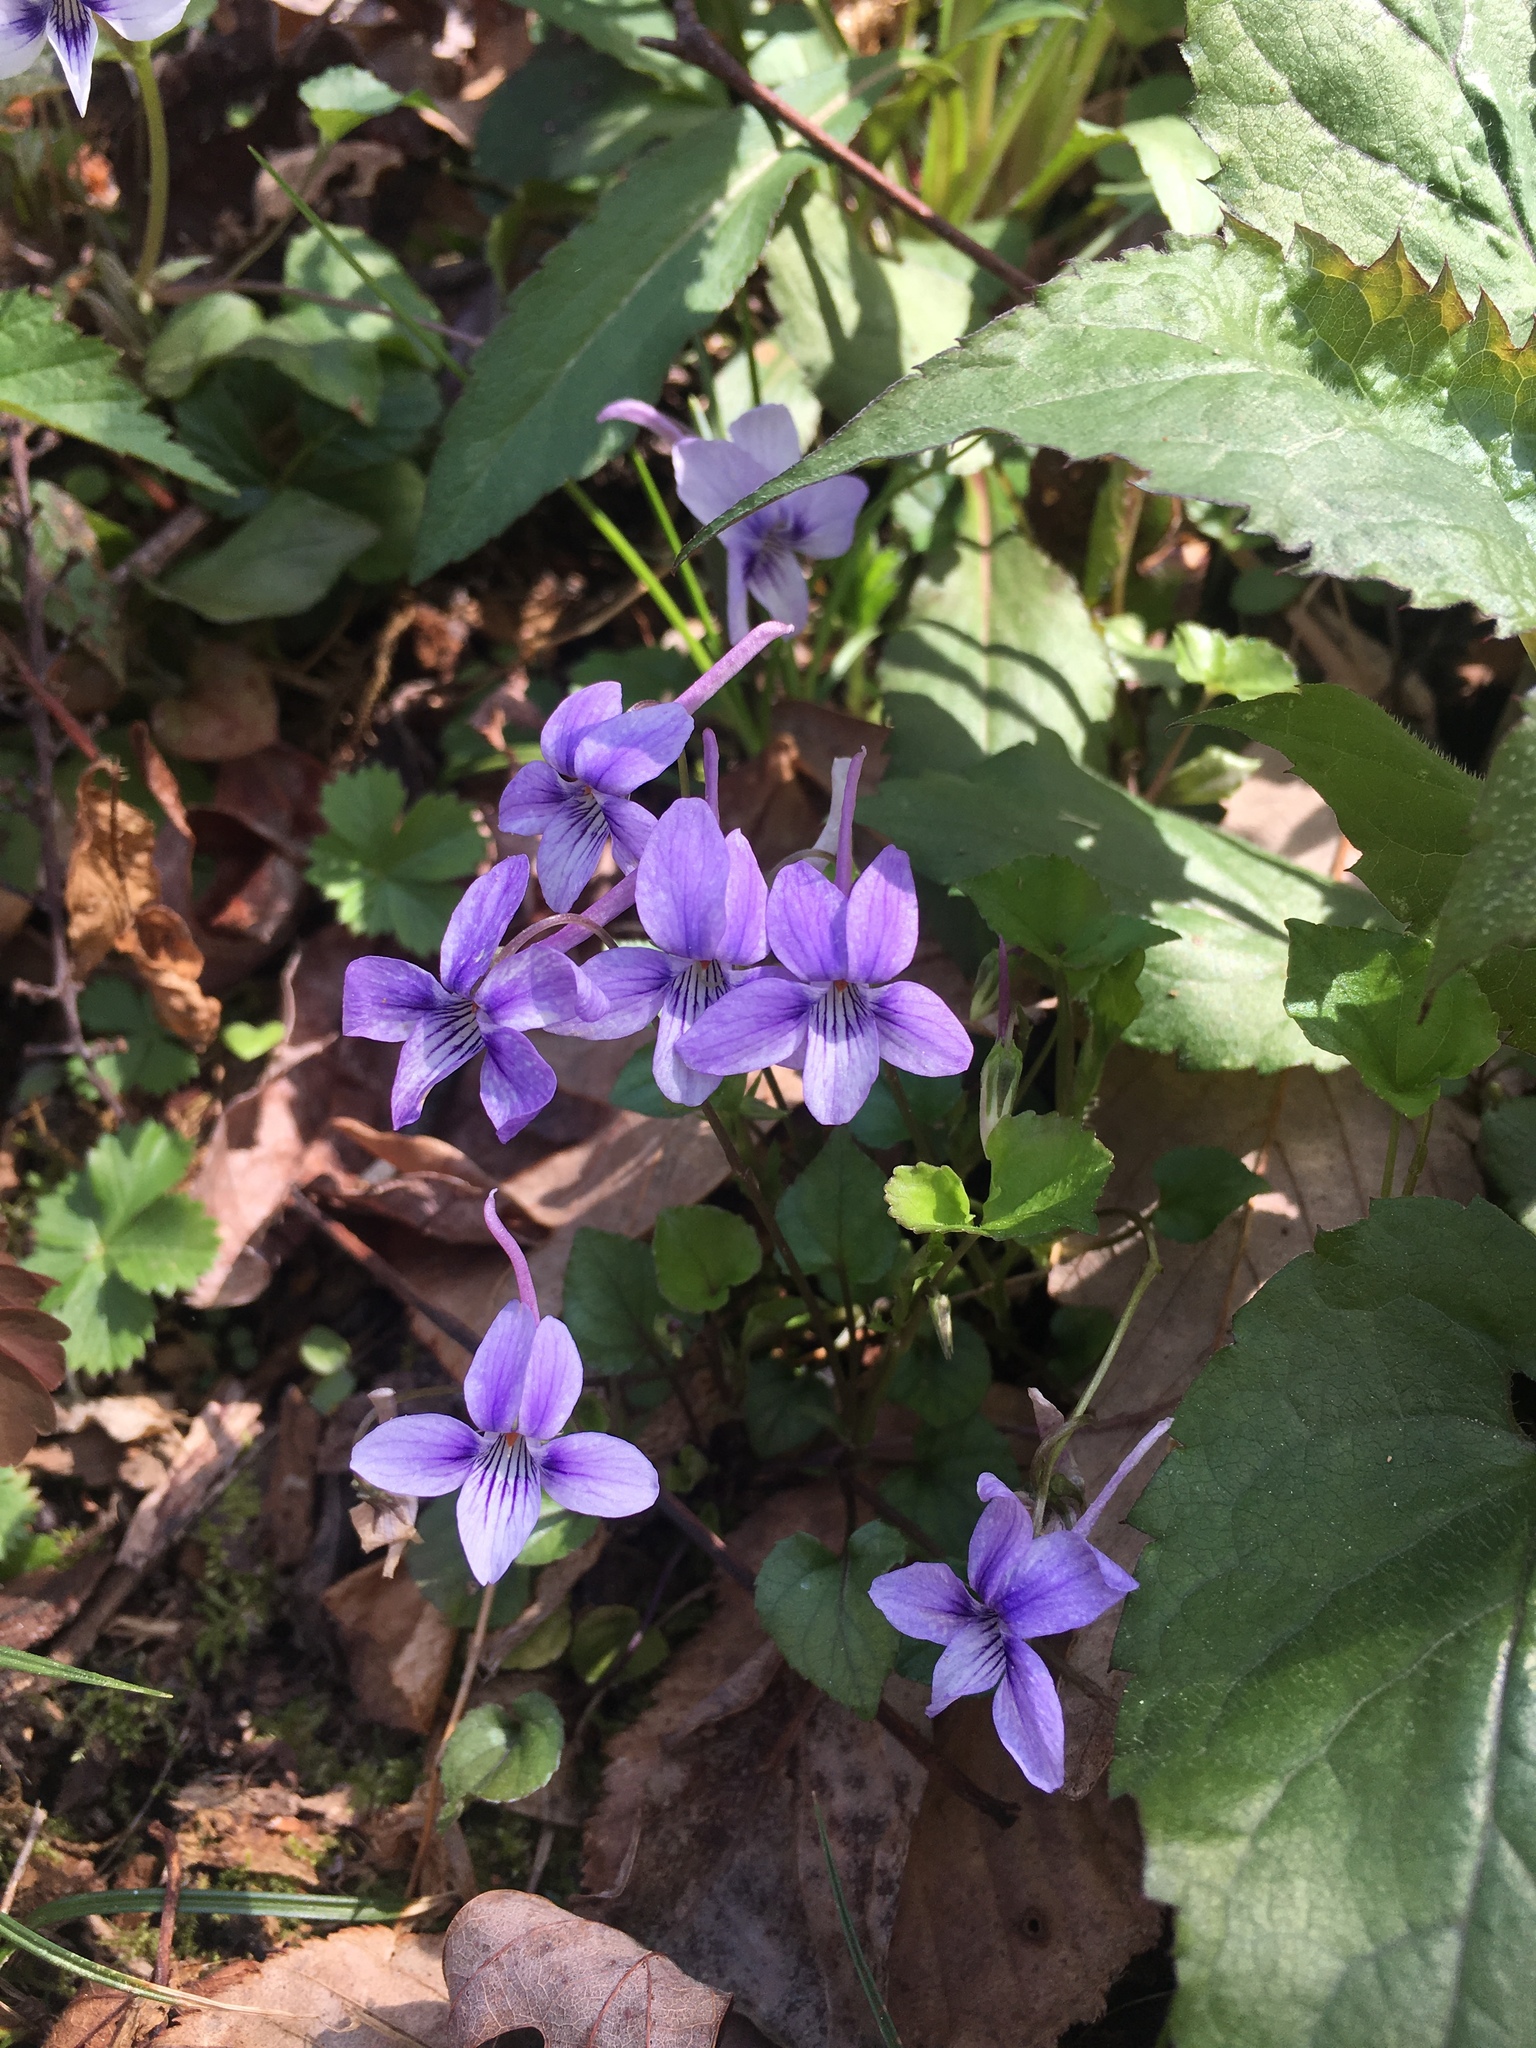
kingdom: Plantae
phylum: Tracheophyta
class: Magnoliopsida
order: Malpighiales
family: Violaceae
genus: Viola
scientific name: Viola rostrata
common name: Long-spur violet
